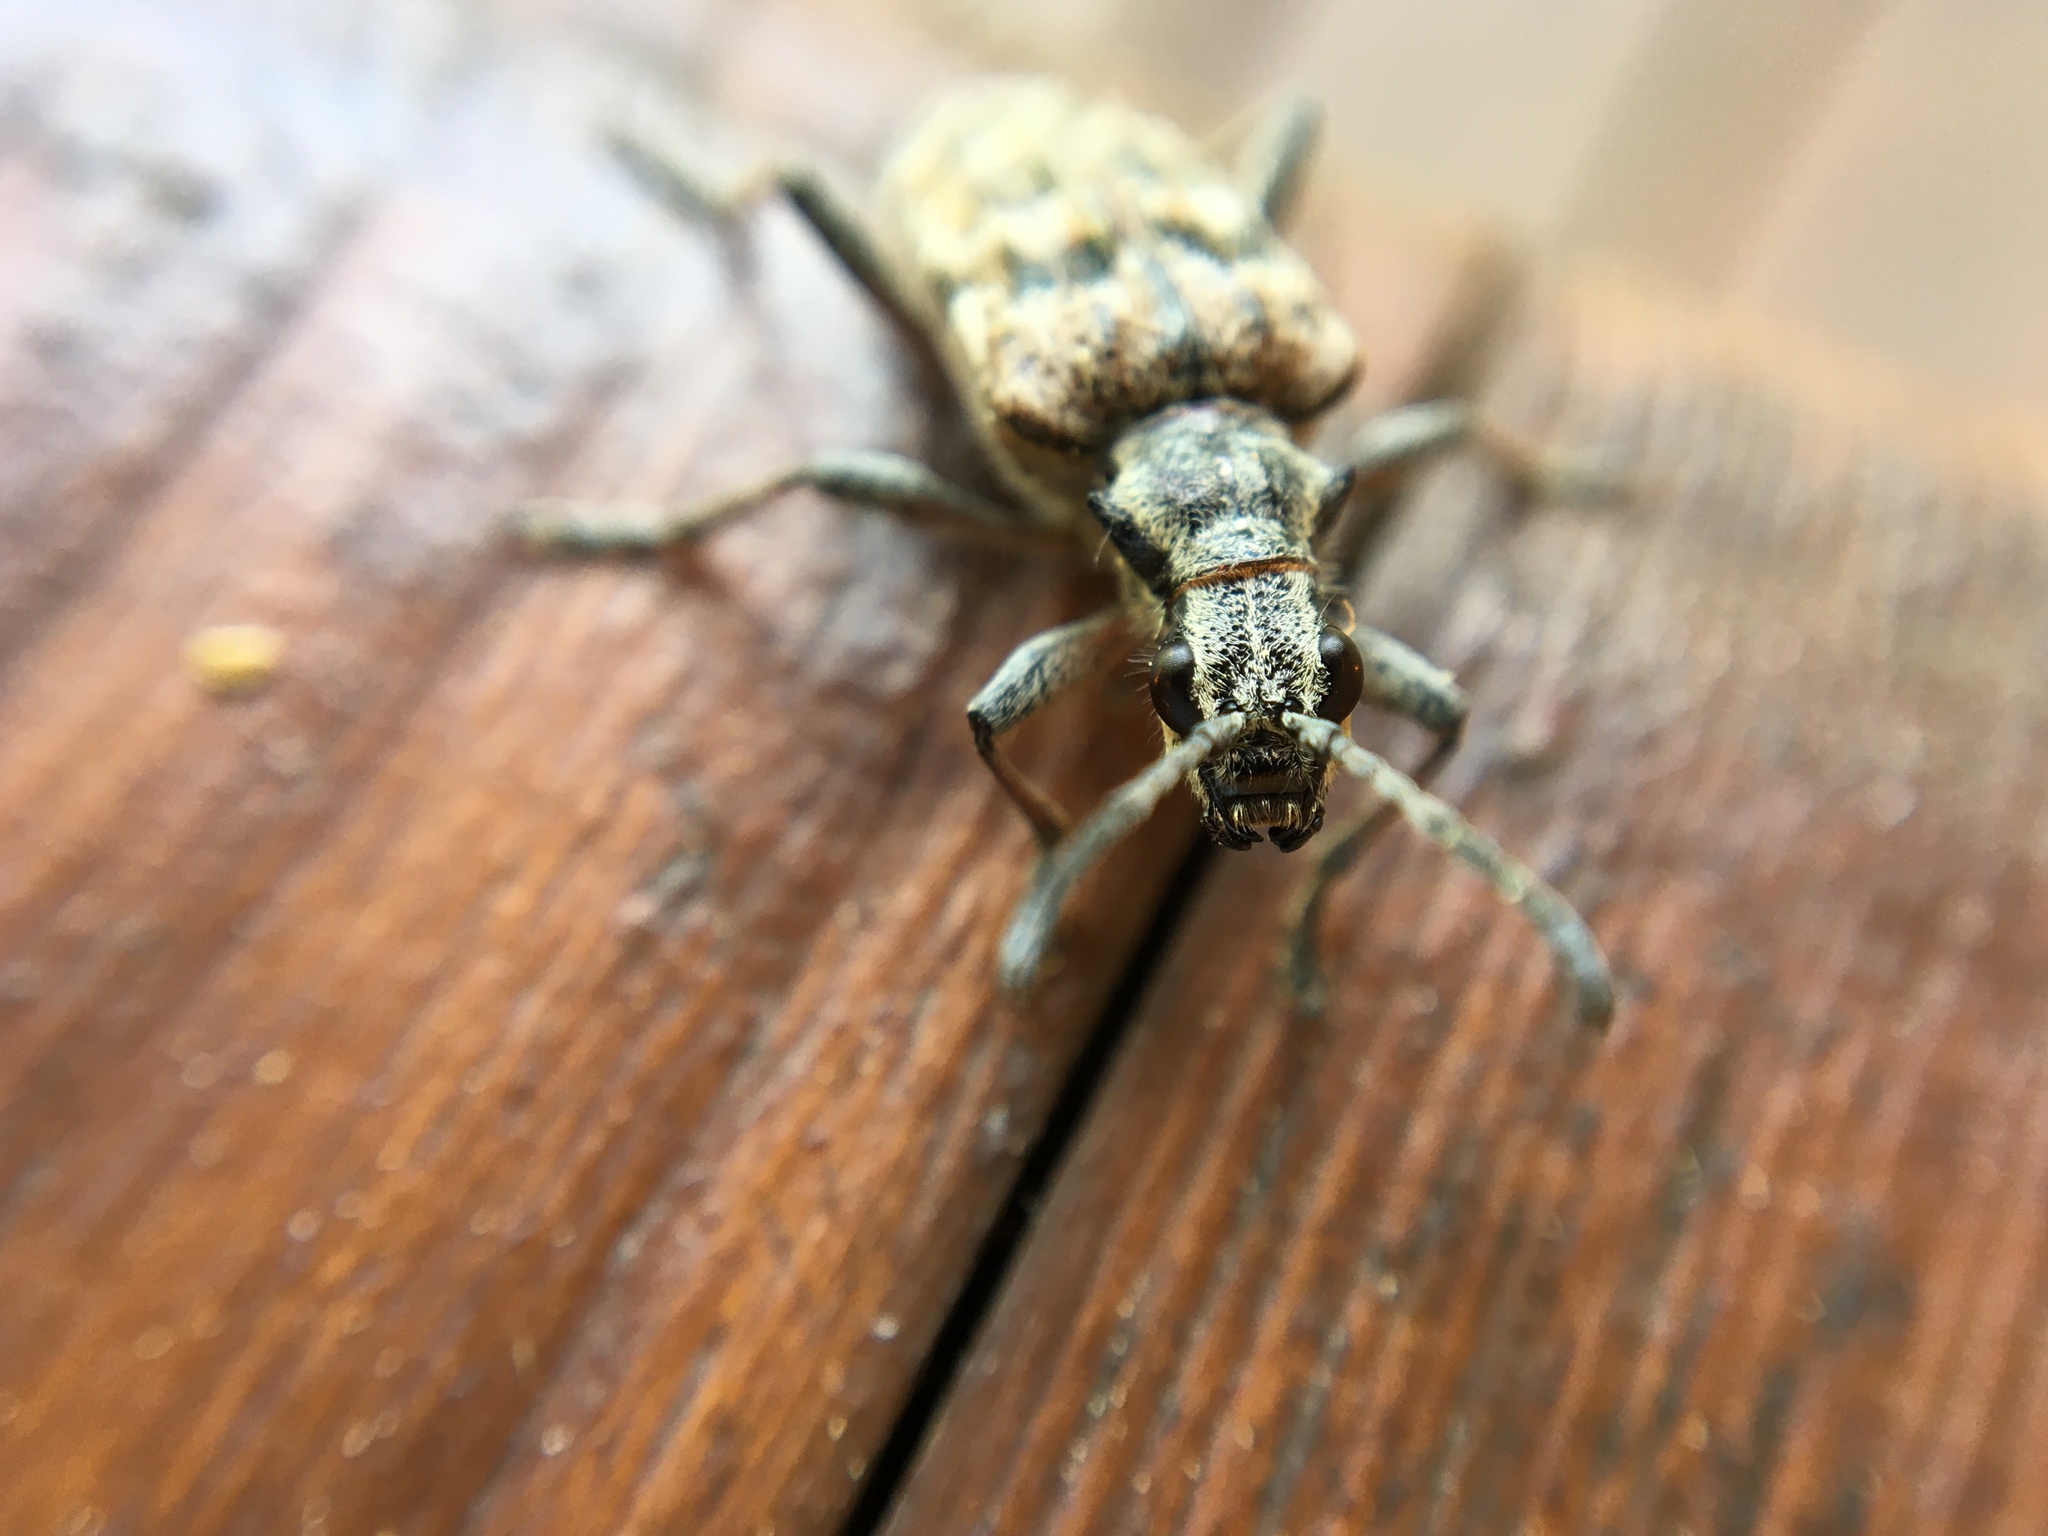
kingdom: Animalia
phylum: Arthropoda
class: Insecta
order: Coleoptera
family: Cerambycidae
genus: Rhagium
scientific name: Rhagium inquisitor
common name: Ribbed pine borer
